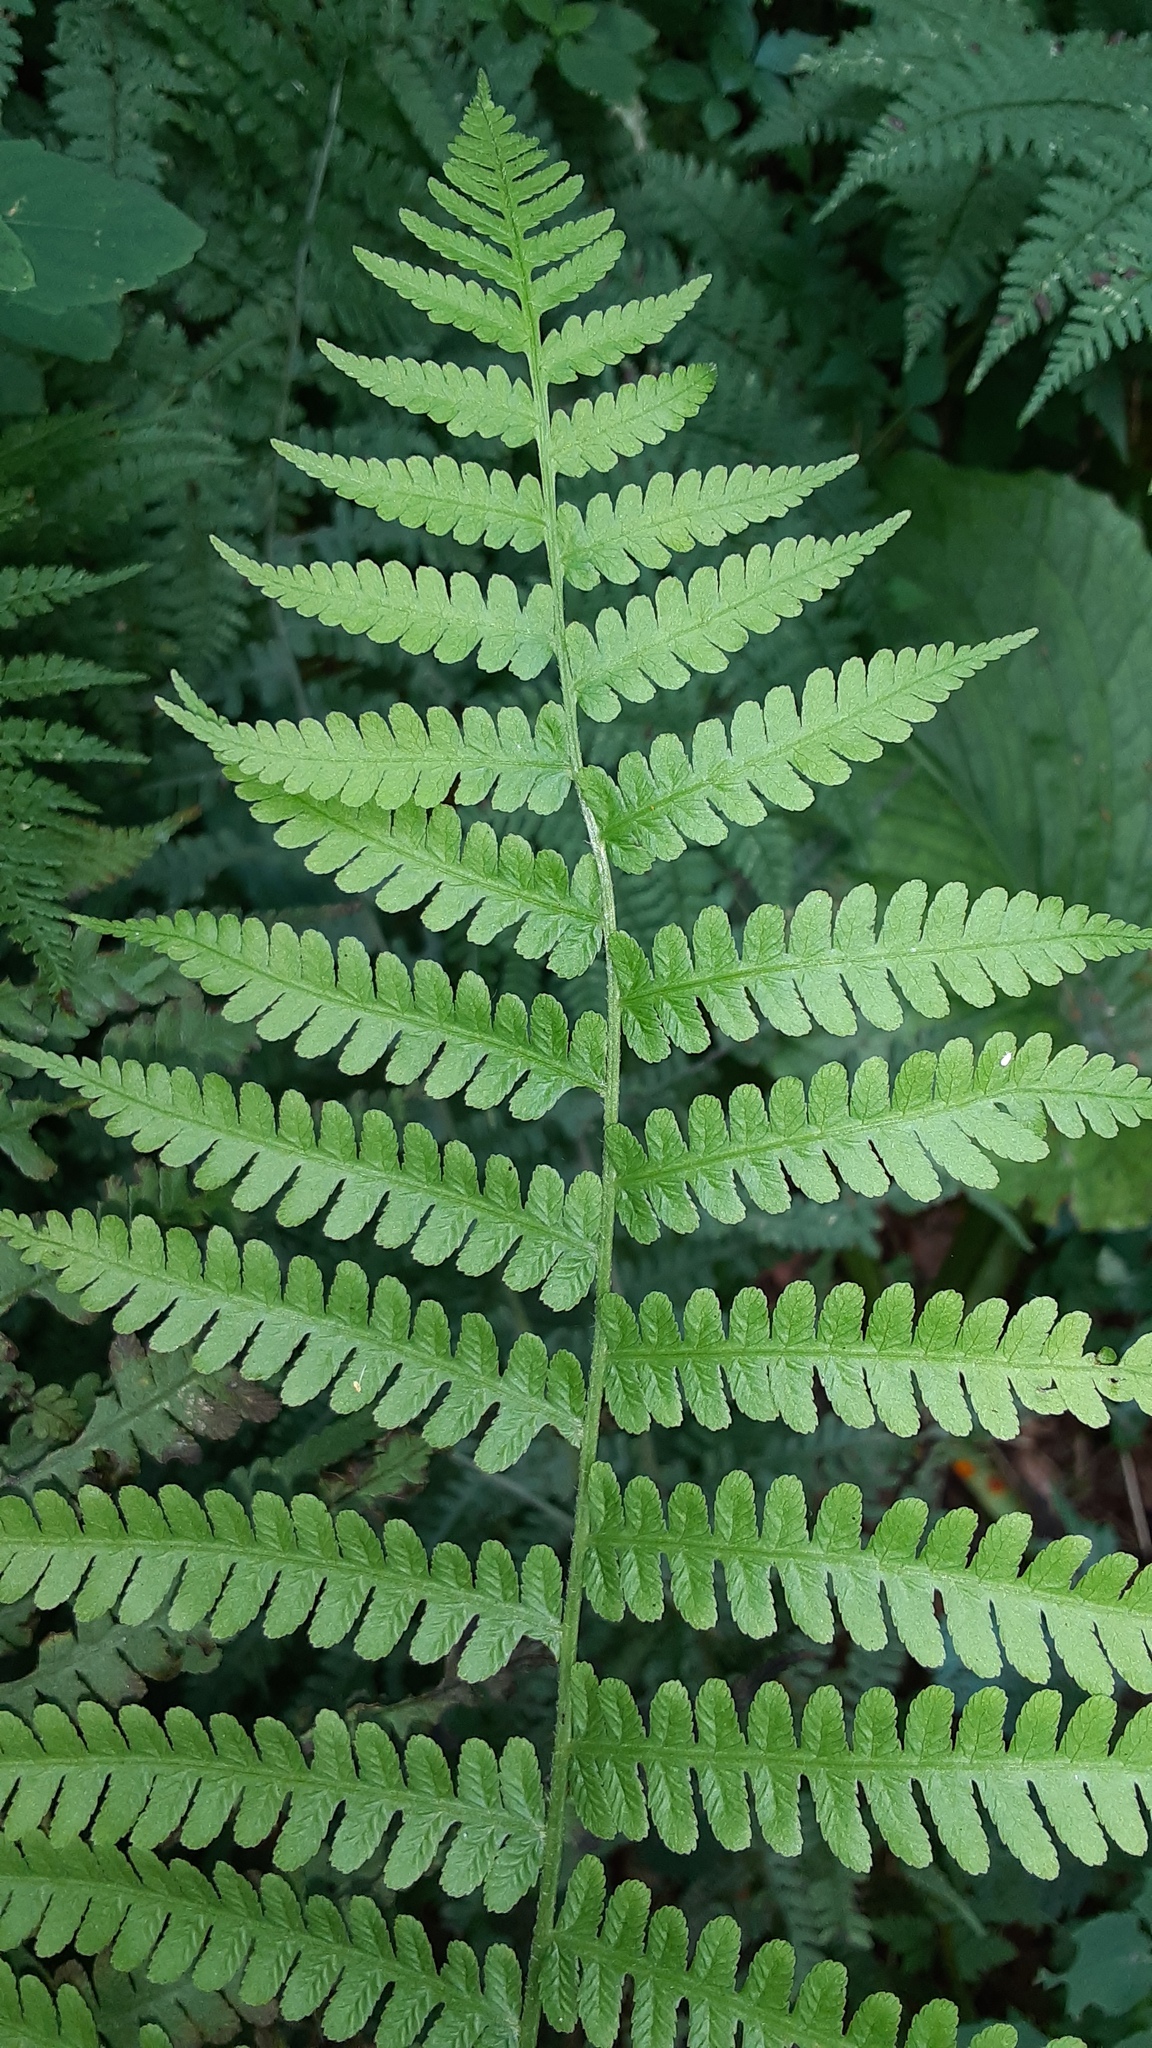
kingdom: Plantae
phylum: Tracheophyta
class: Polypodiopsida
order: Polypodiales
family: Athyriaceae
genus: Deparia
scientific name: Deparia acrostichoides
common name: Silver false spleenwort
